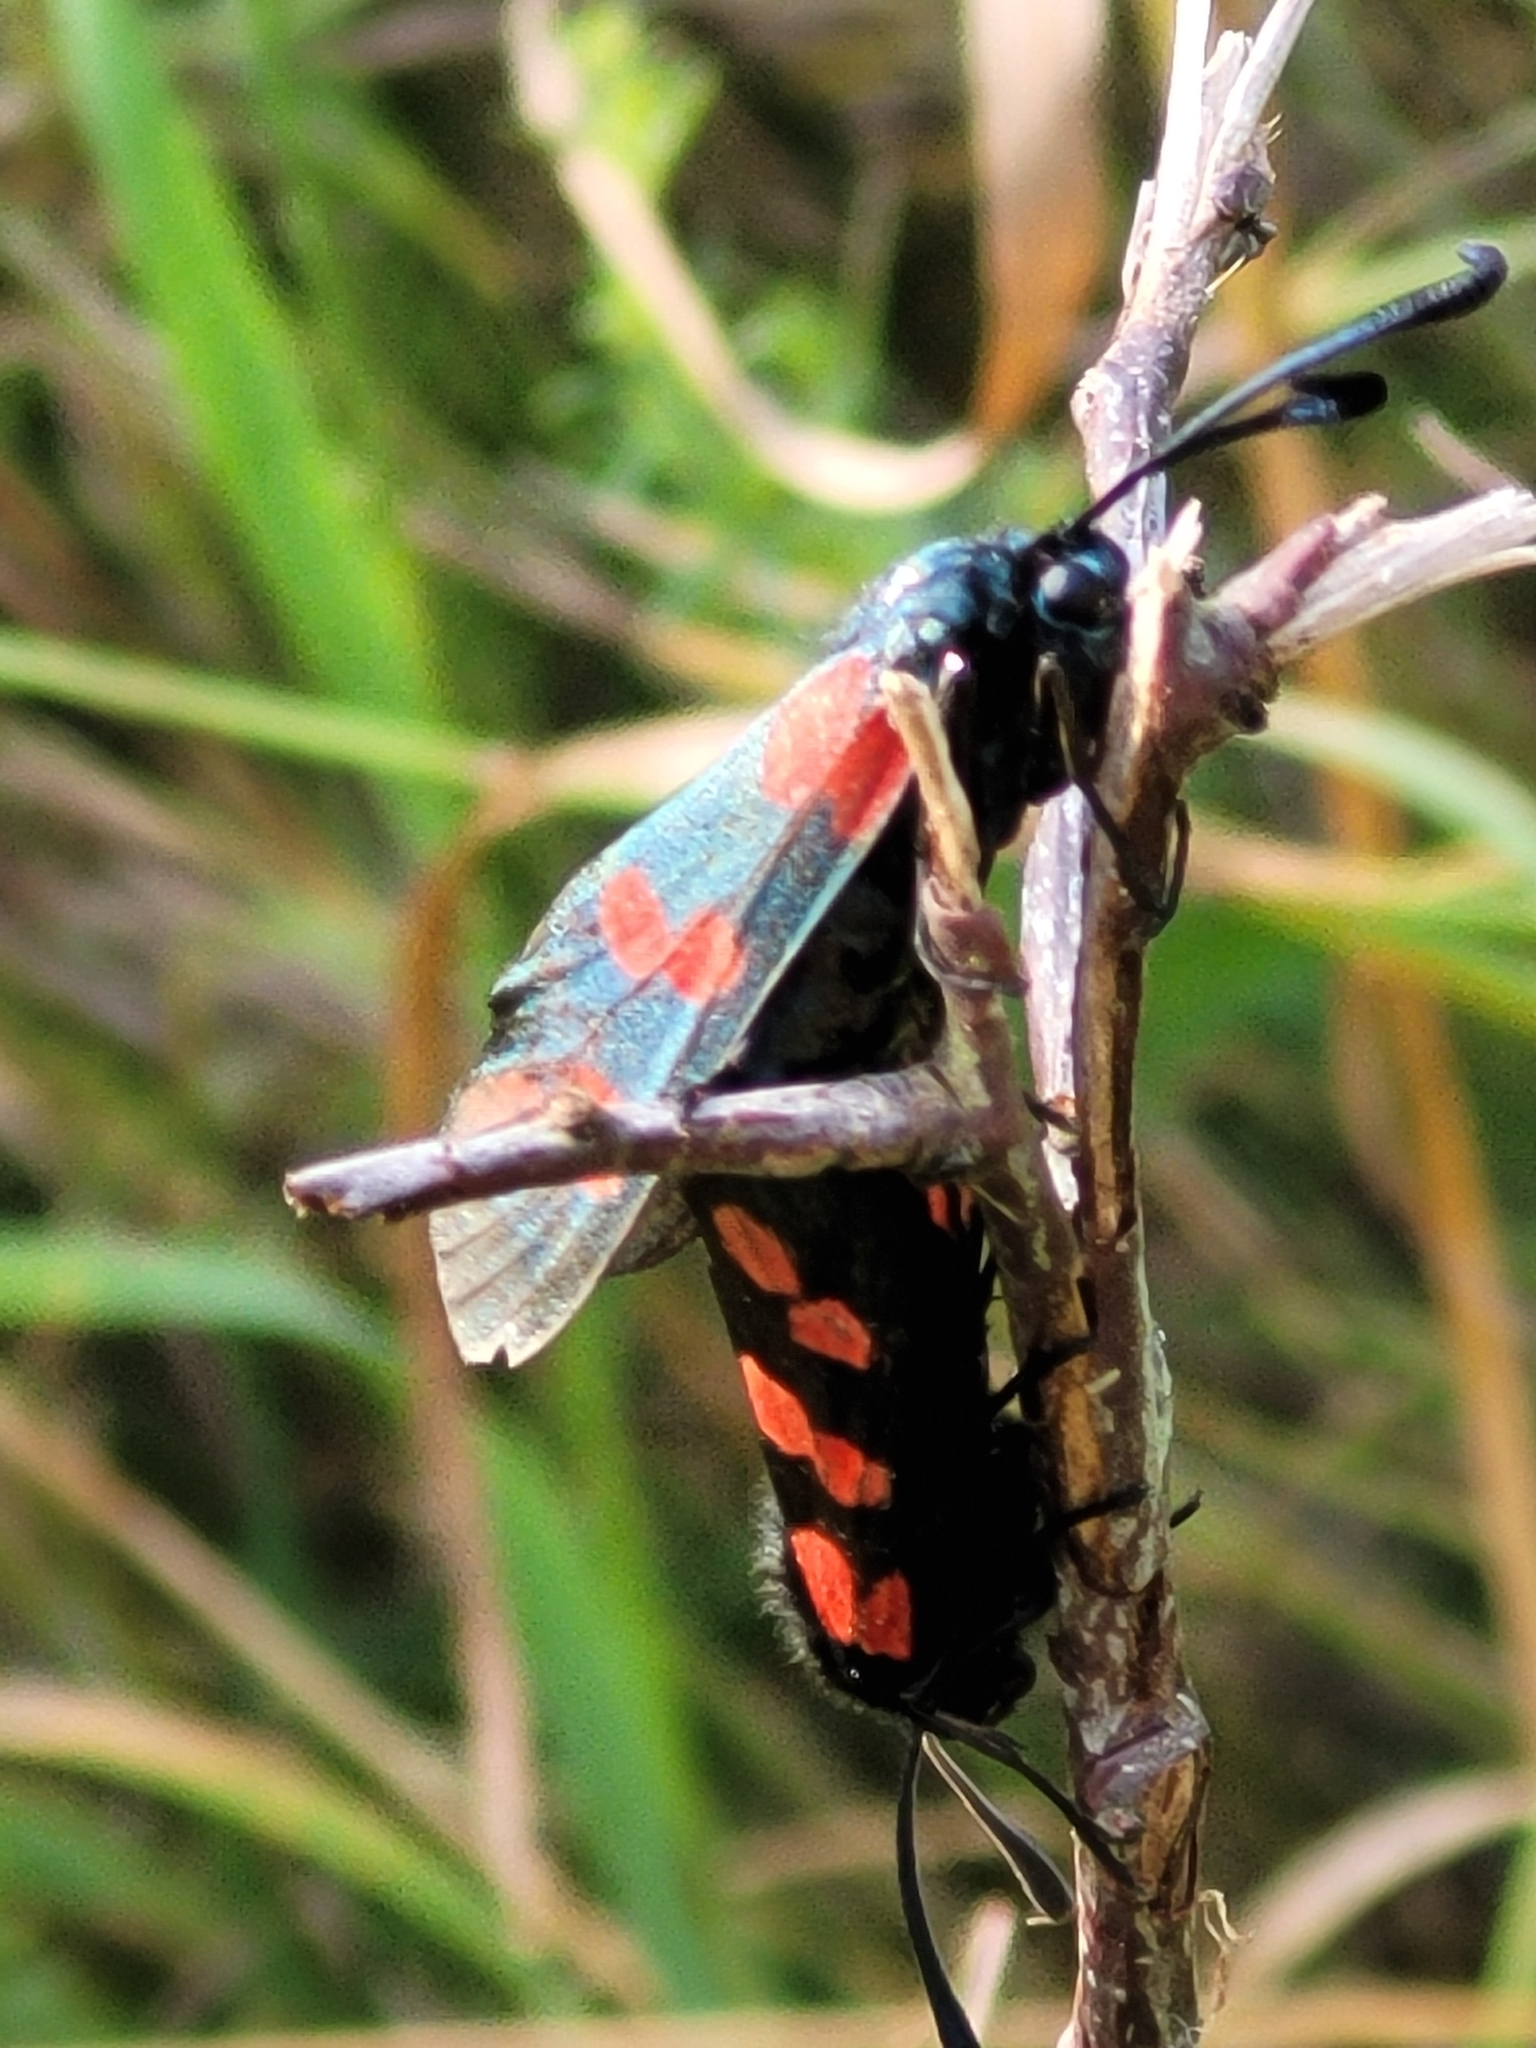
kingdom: Animalia
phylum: Arthropoda
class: Insecta
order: Lepidoptera
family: Zygaenidae
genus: Zygaena
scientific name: Zygaena filipendulae
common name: Six-spot burnet
